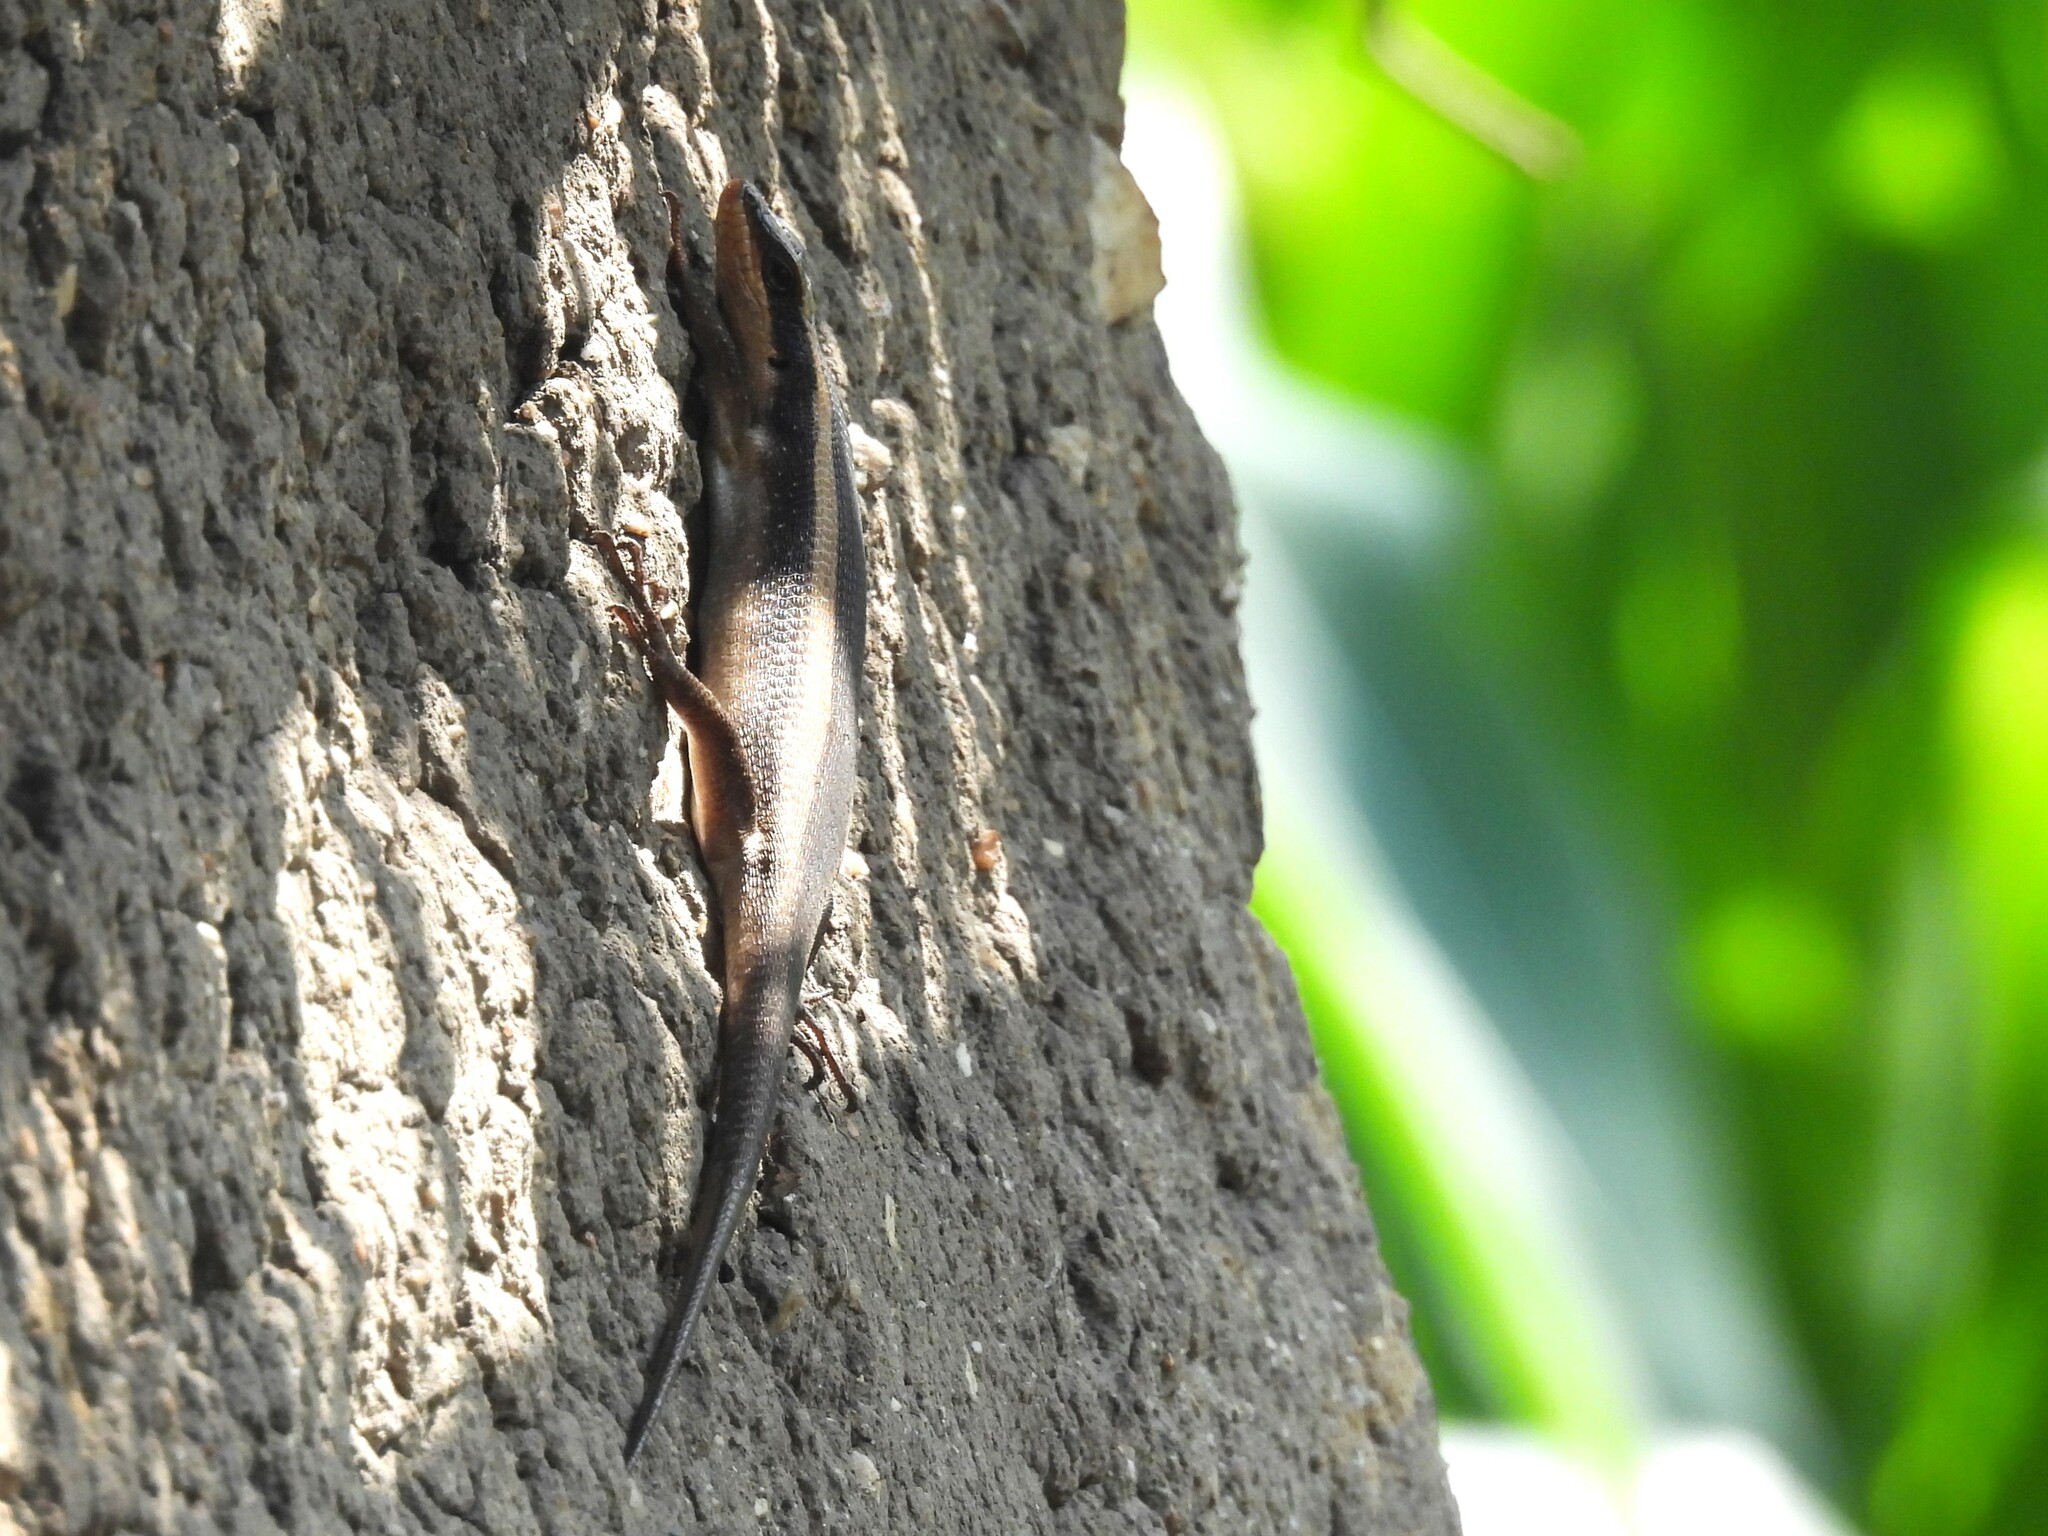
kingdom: Animalia
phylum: Chordata
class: Squamata
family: Scincidae
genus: Trachylepis
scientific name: Trachylepis striata
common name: African striped mabuya
